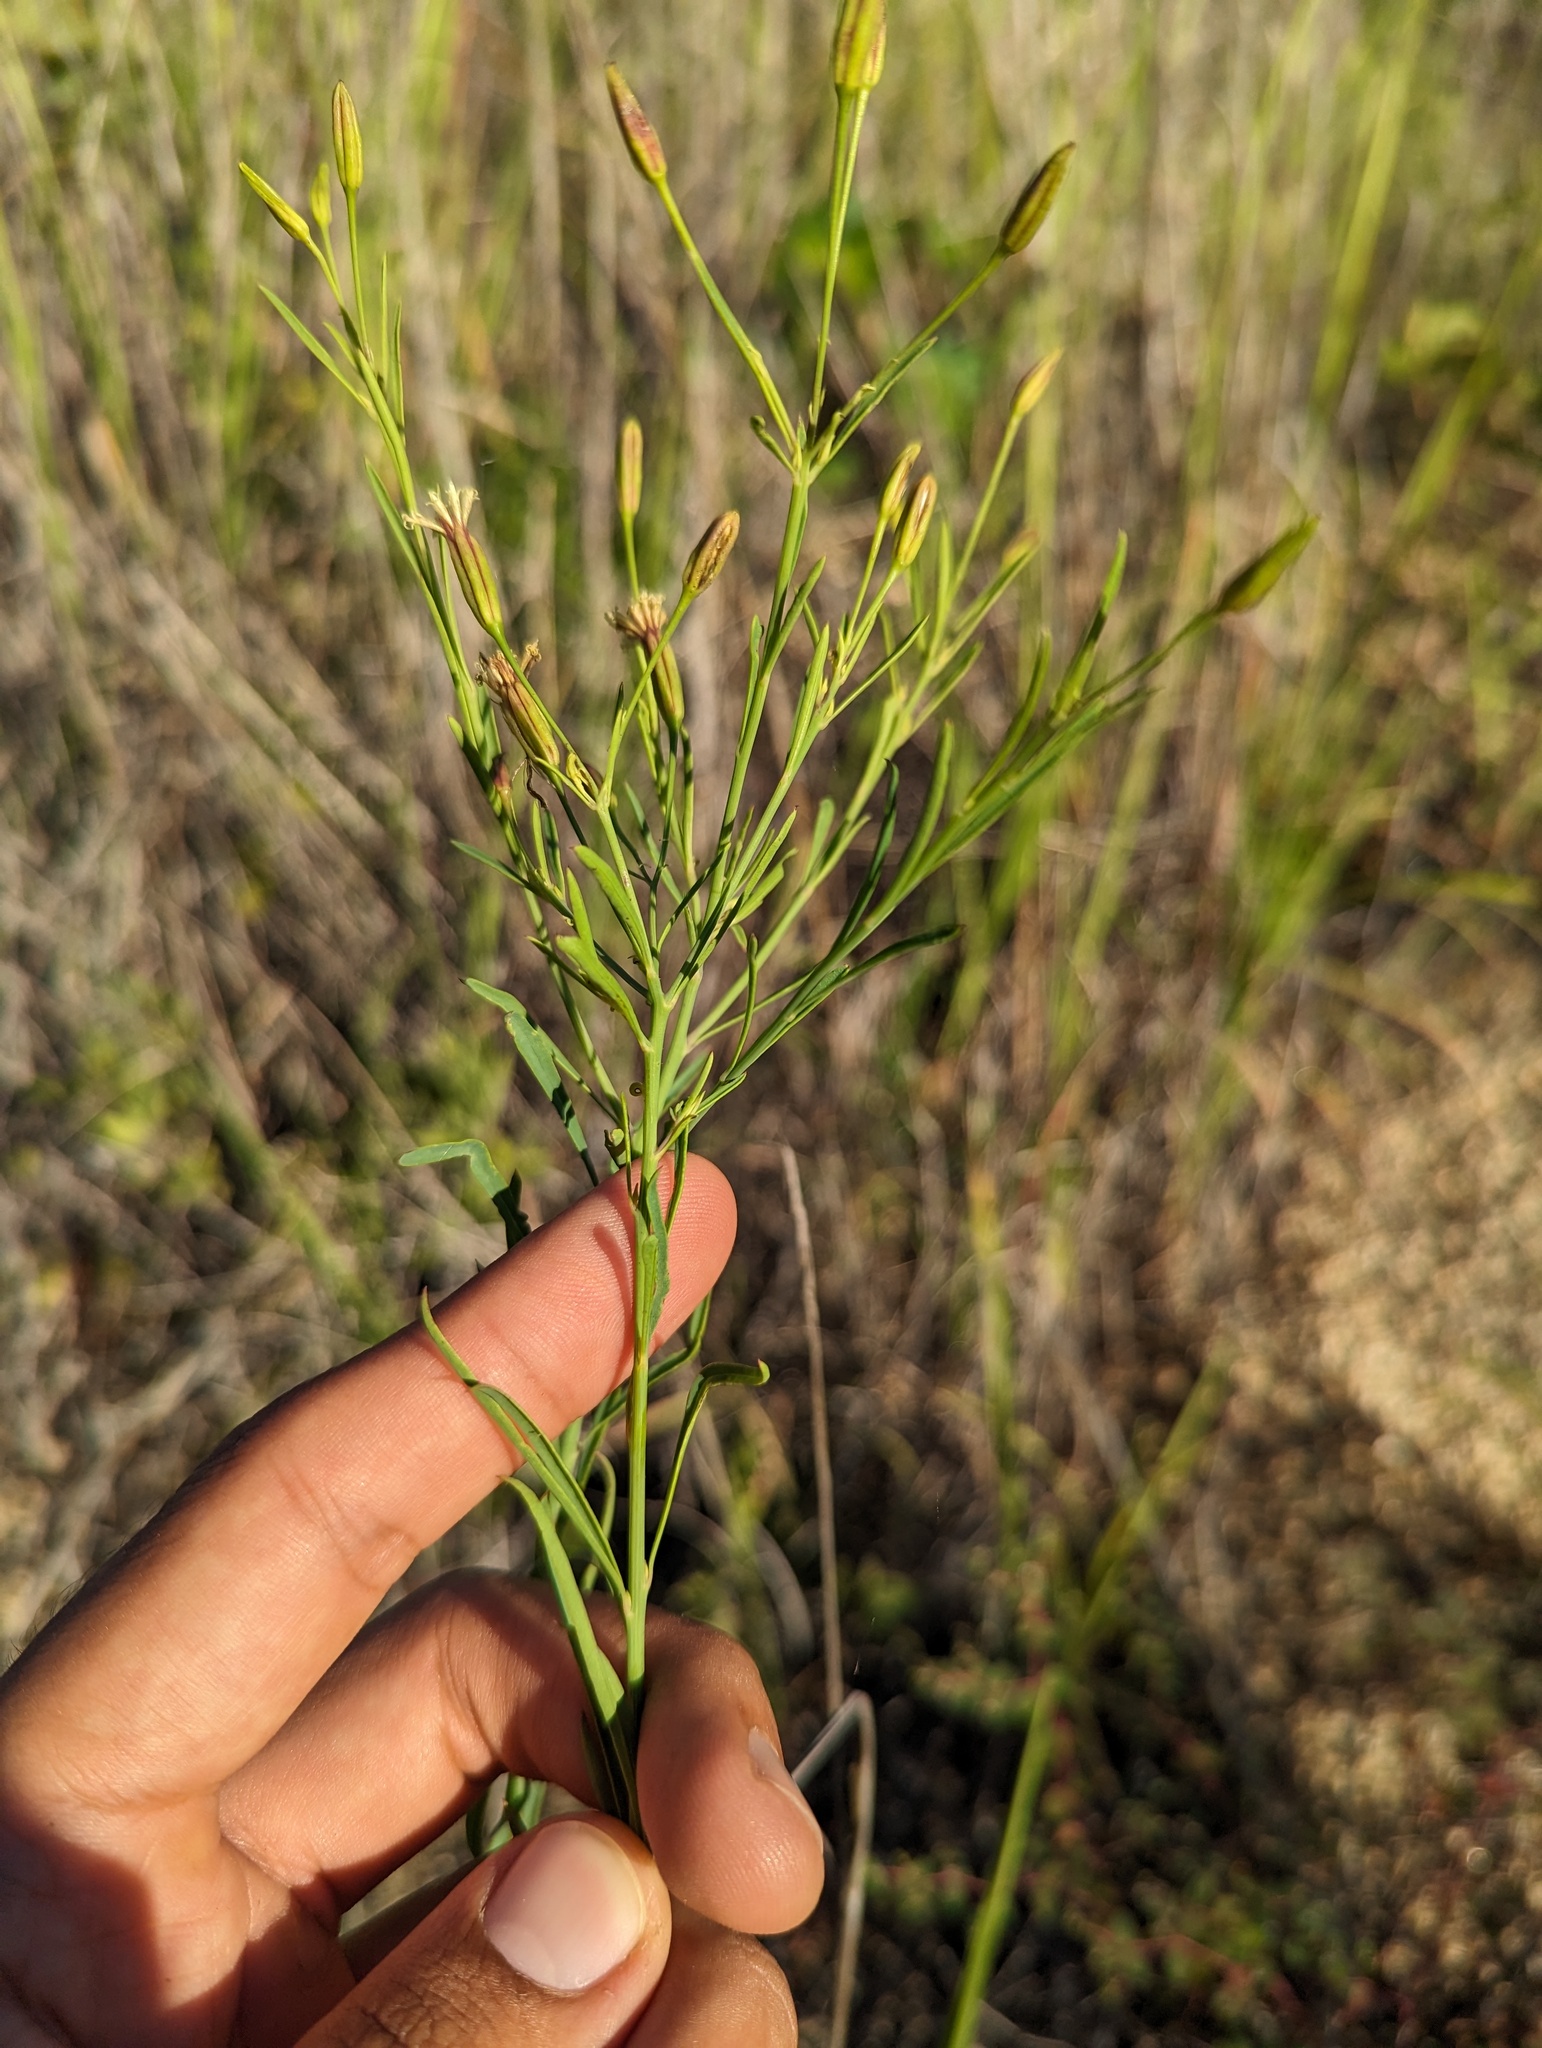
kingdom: Plantae
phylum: Tracheophyta
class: Magnoliopsida
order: Asterales
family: Asteraceae
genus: Porophyllum
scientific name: Porophyllum gracile
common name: Odora
